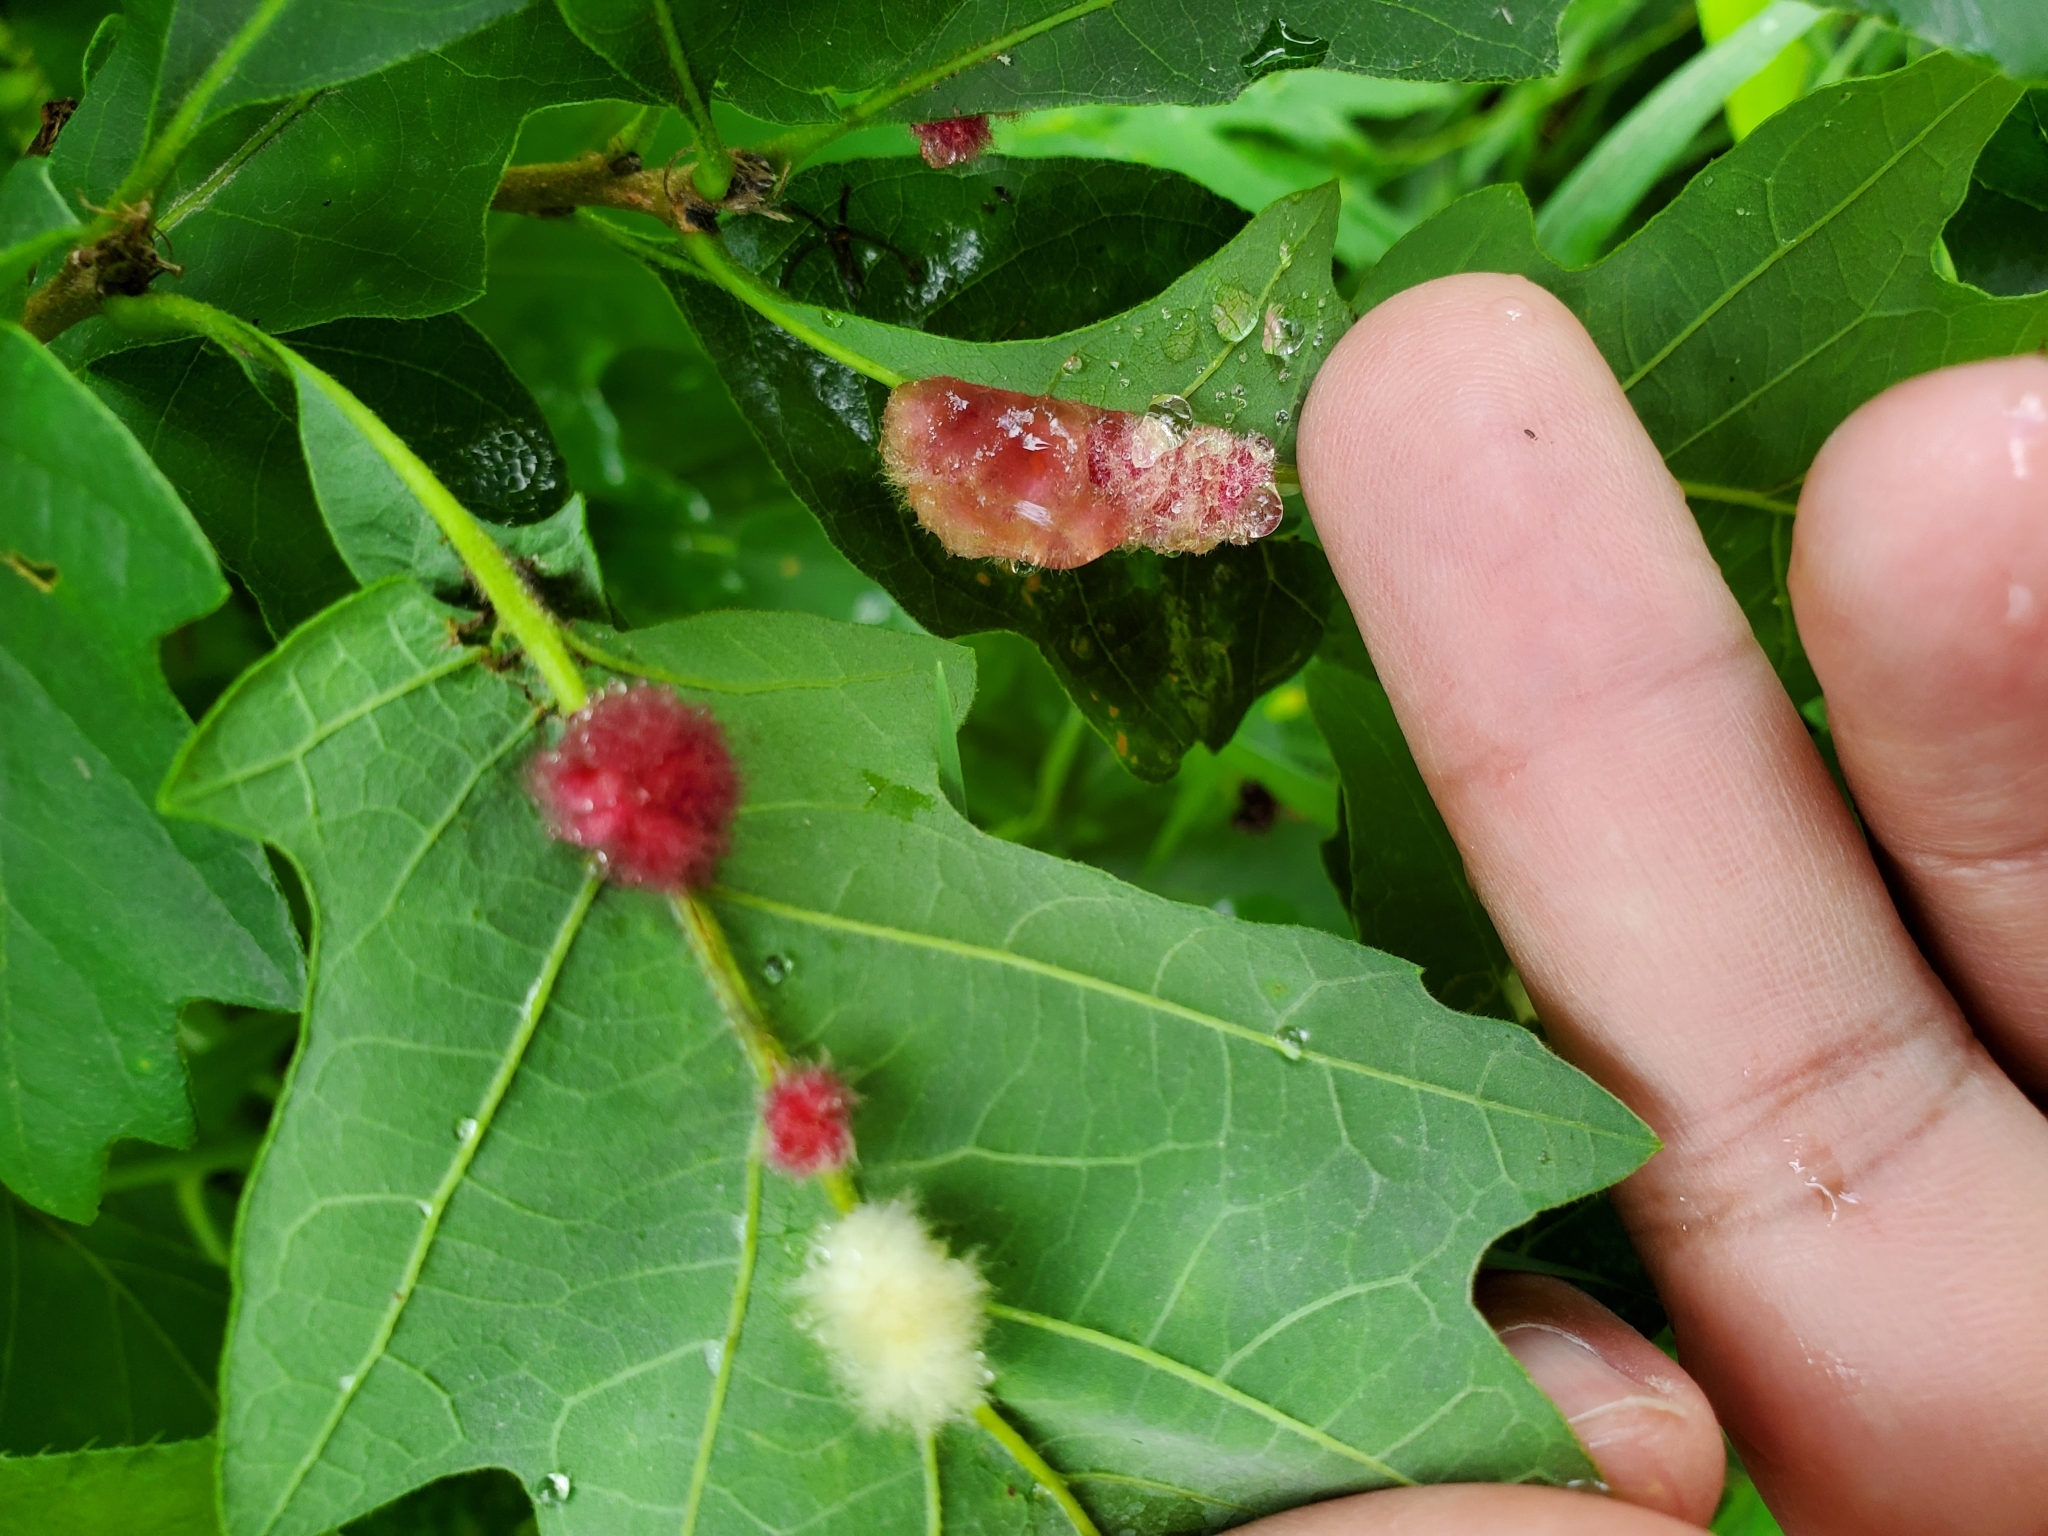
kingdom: Animalia
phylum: Arthropoda
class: Insecta
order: Hymenoptera
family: Cynipidae
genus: Andricus
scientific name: Andricus Druon ignotum
